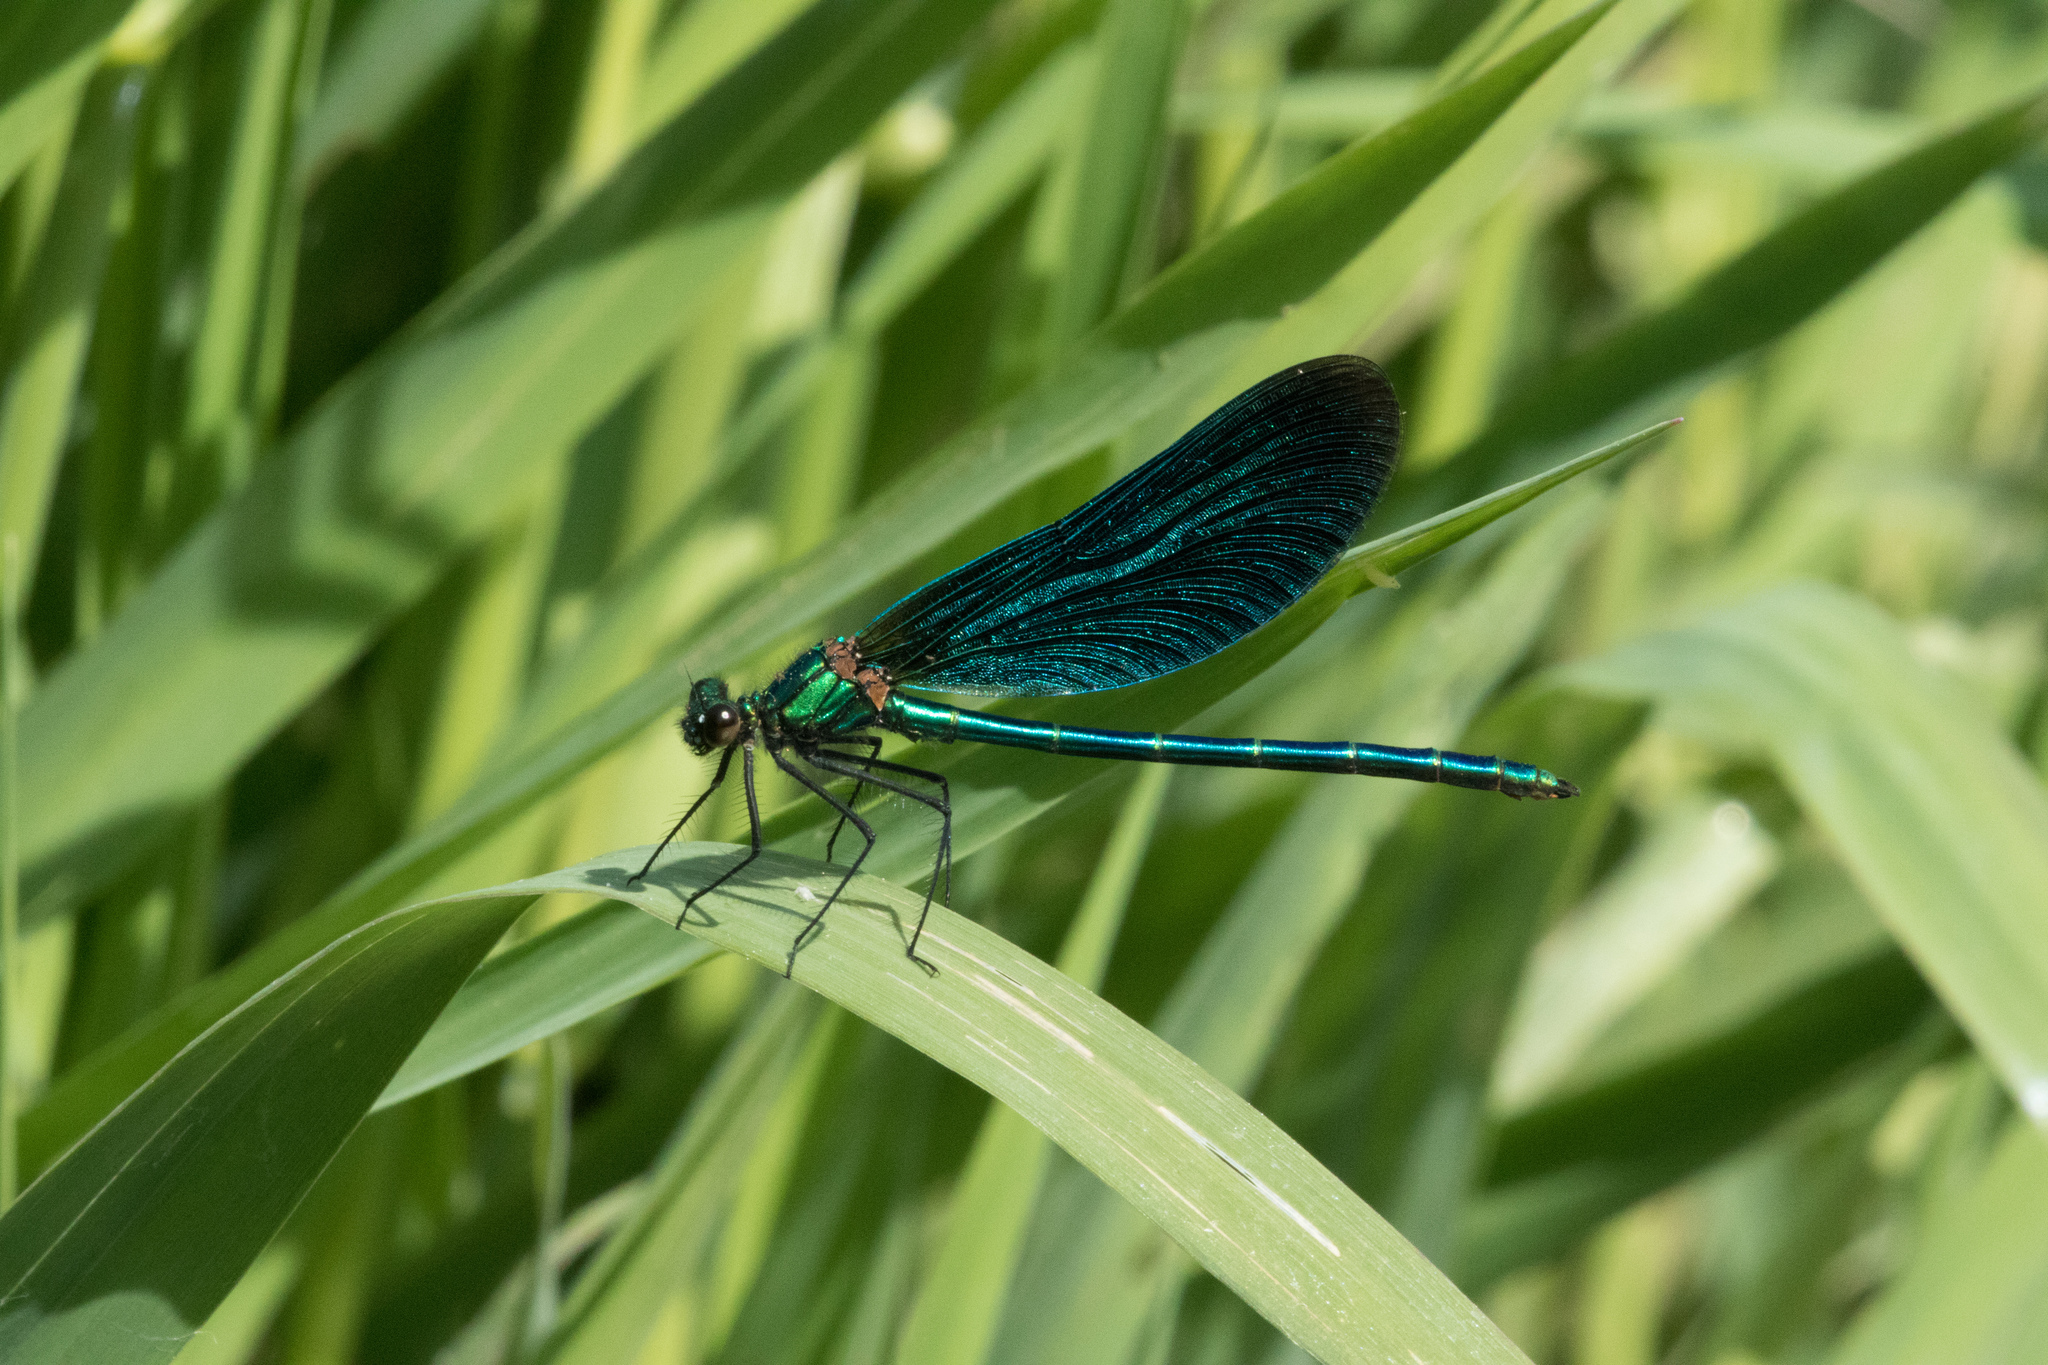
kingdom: Animalia
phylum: Arthropoda
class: Insecta
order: Odonata
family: Calopterygidae
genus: Calopteryx
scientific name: Calopteryx virgo
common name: Beautiful demoiselle
